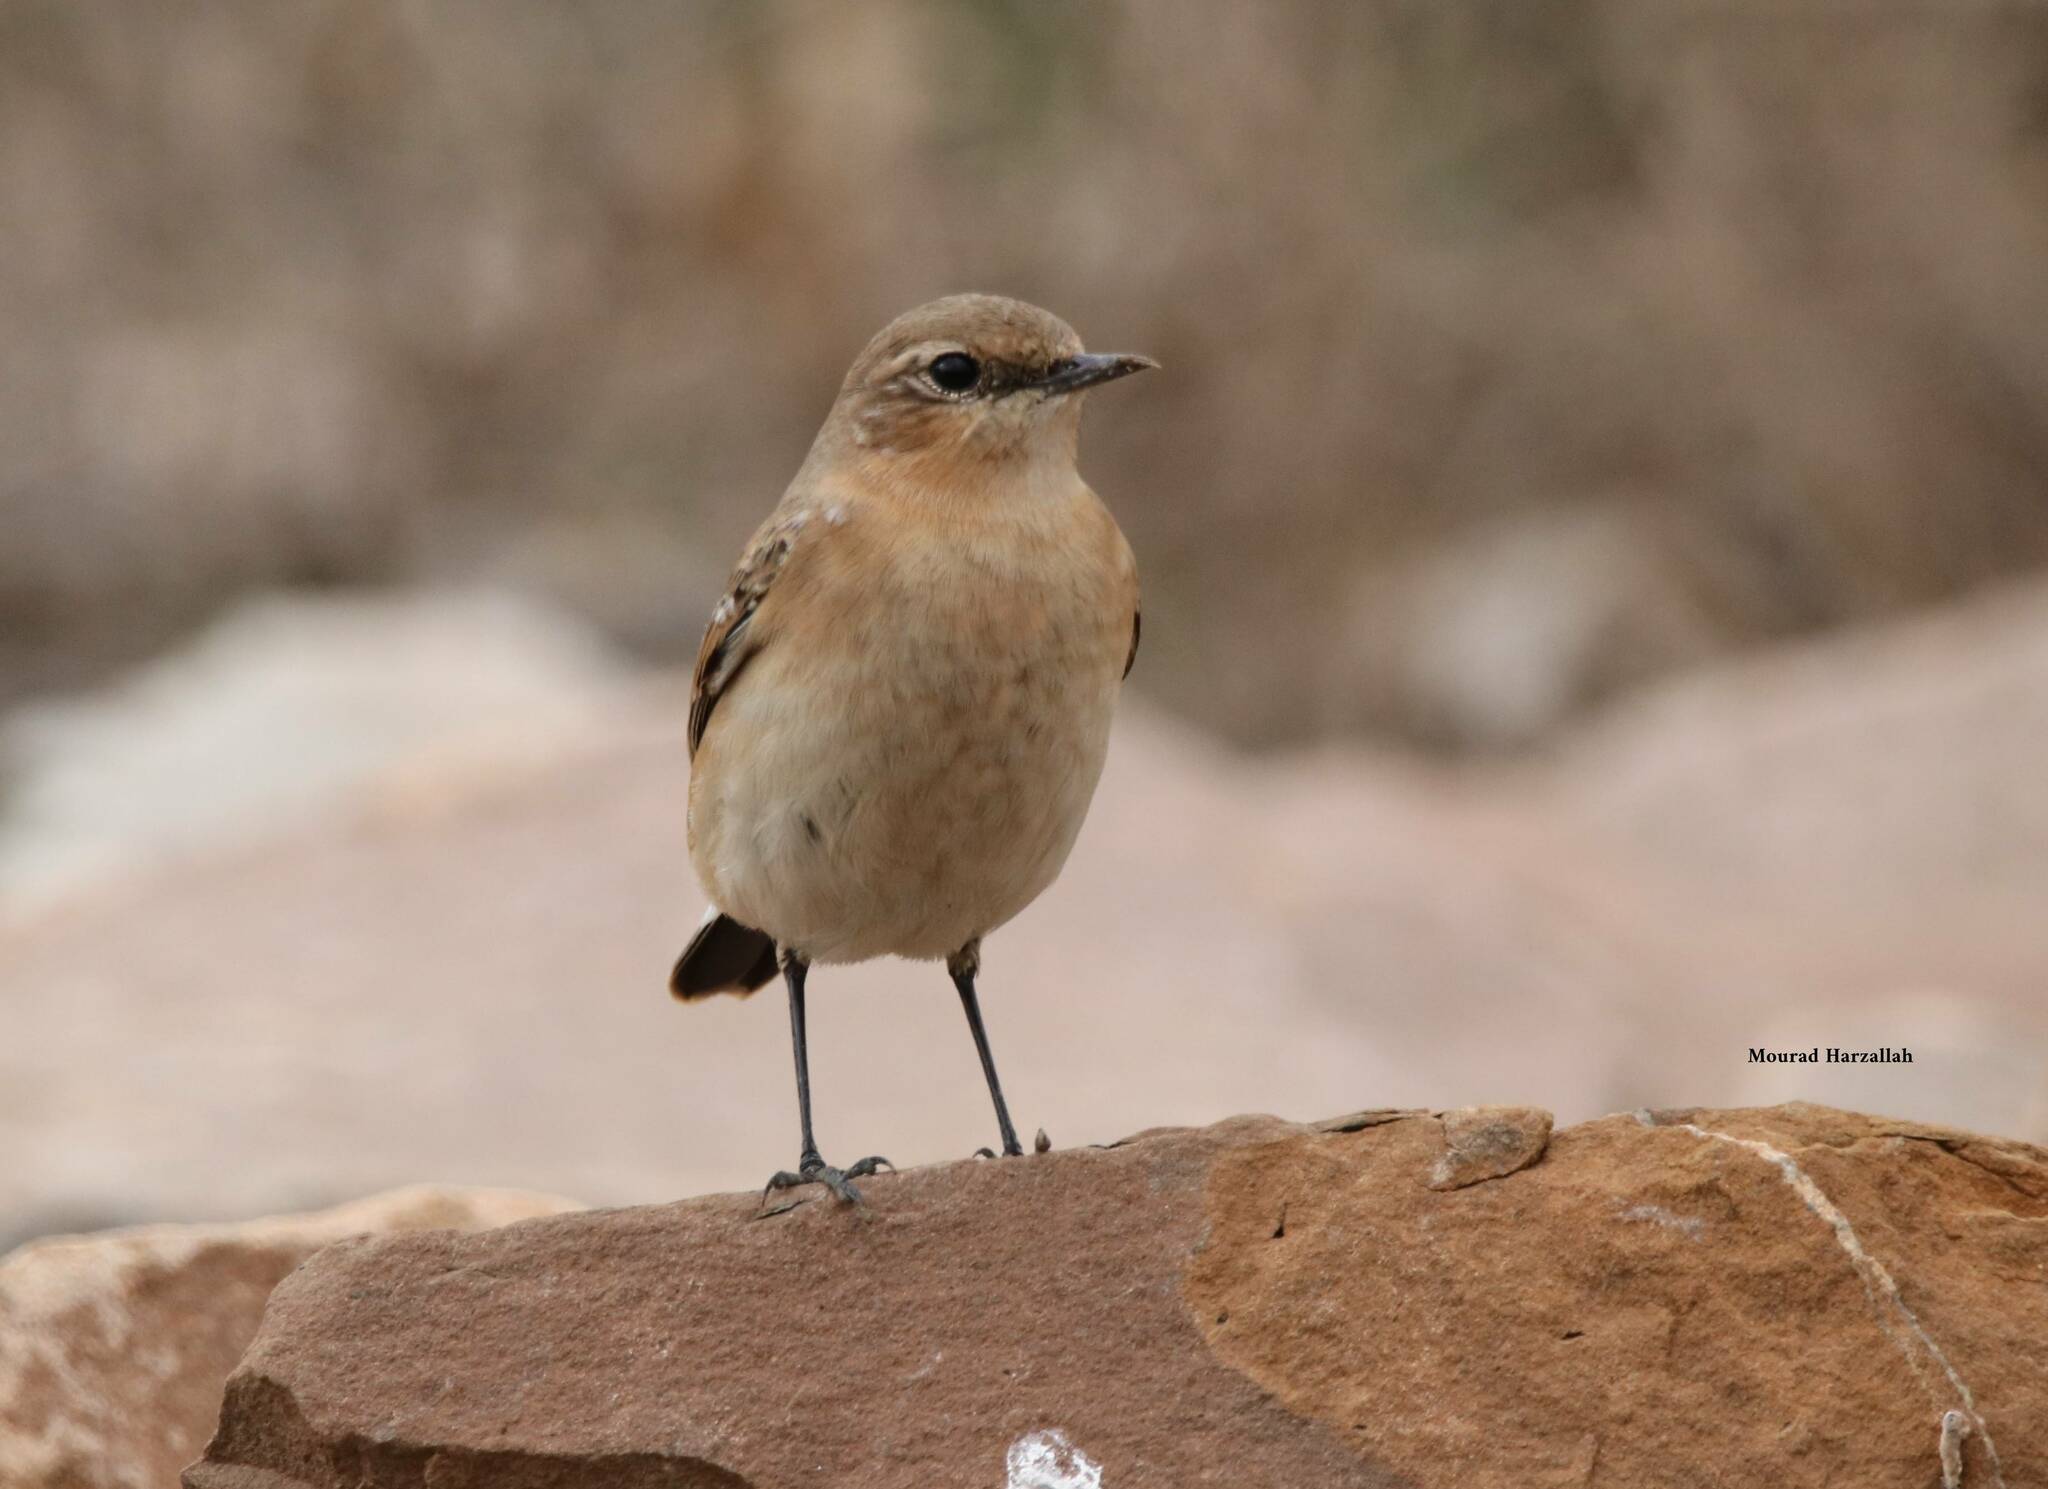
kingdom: Animalia
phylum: Chordata
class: Aves
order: Passeriformes
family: Muscicapidae
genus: Oenanthe
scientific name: Oenanthe oenanthe
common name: Northern wheatear
